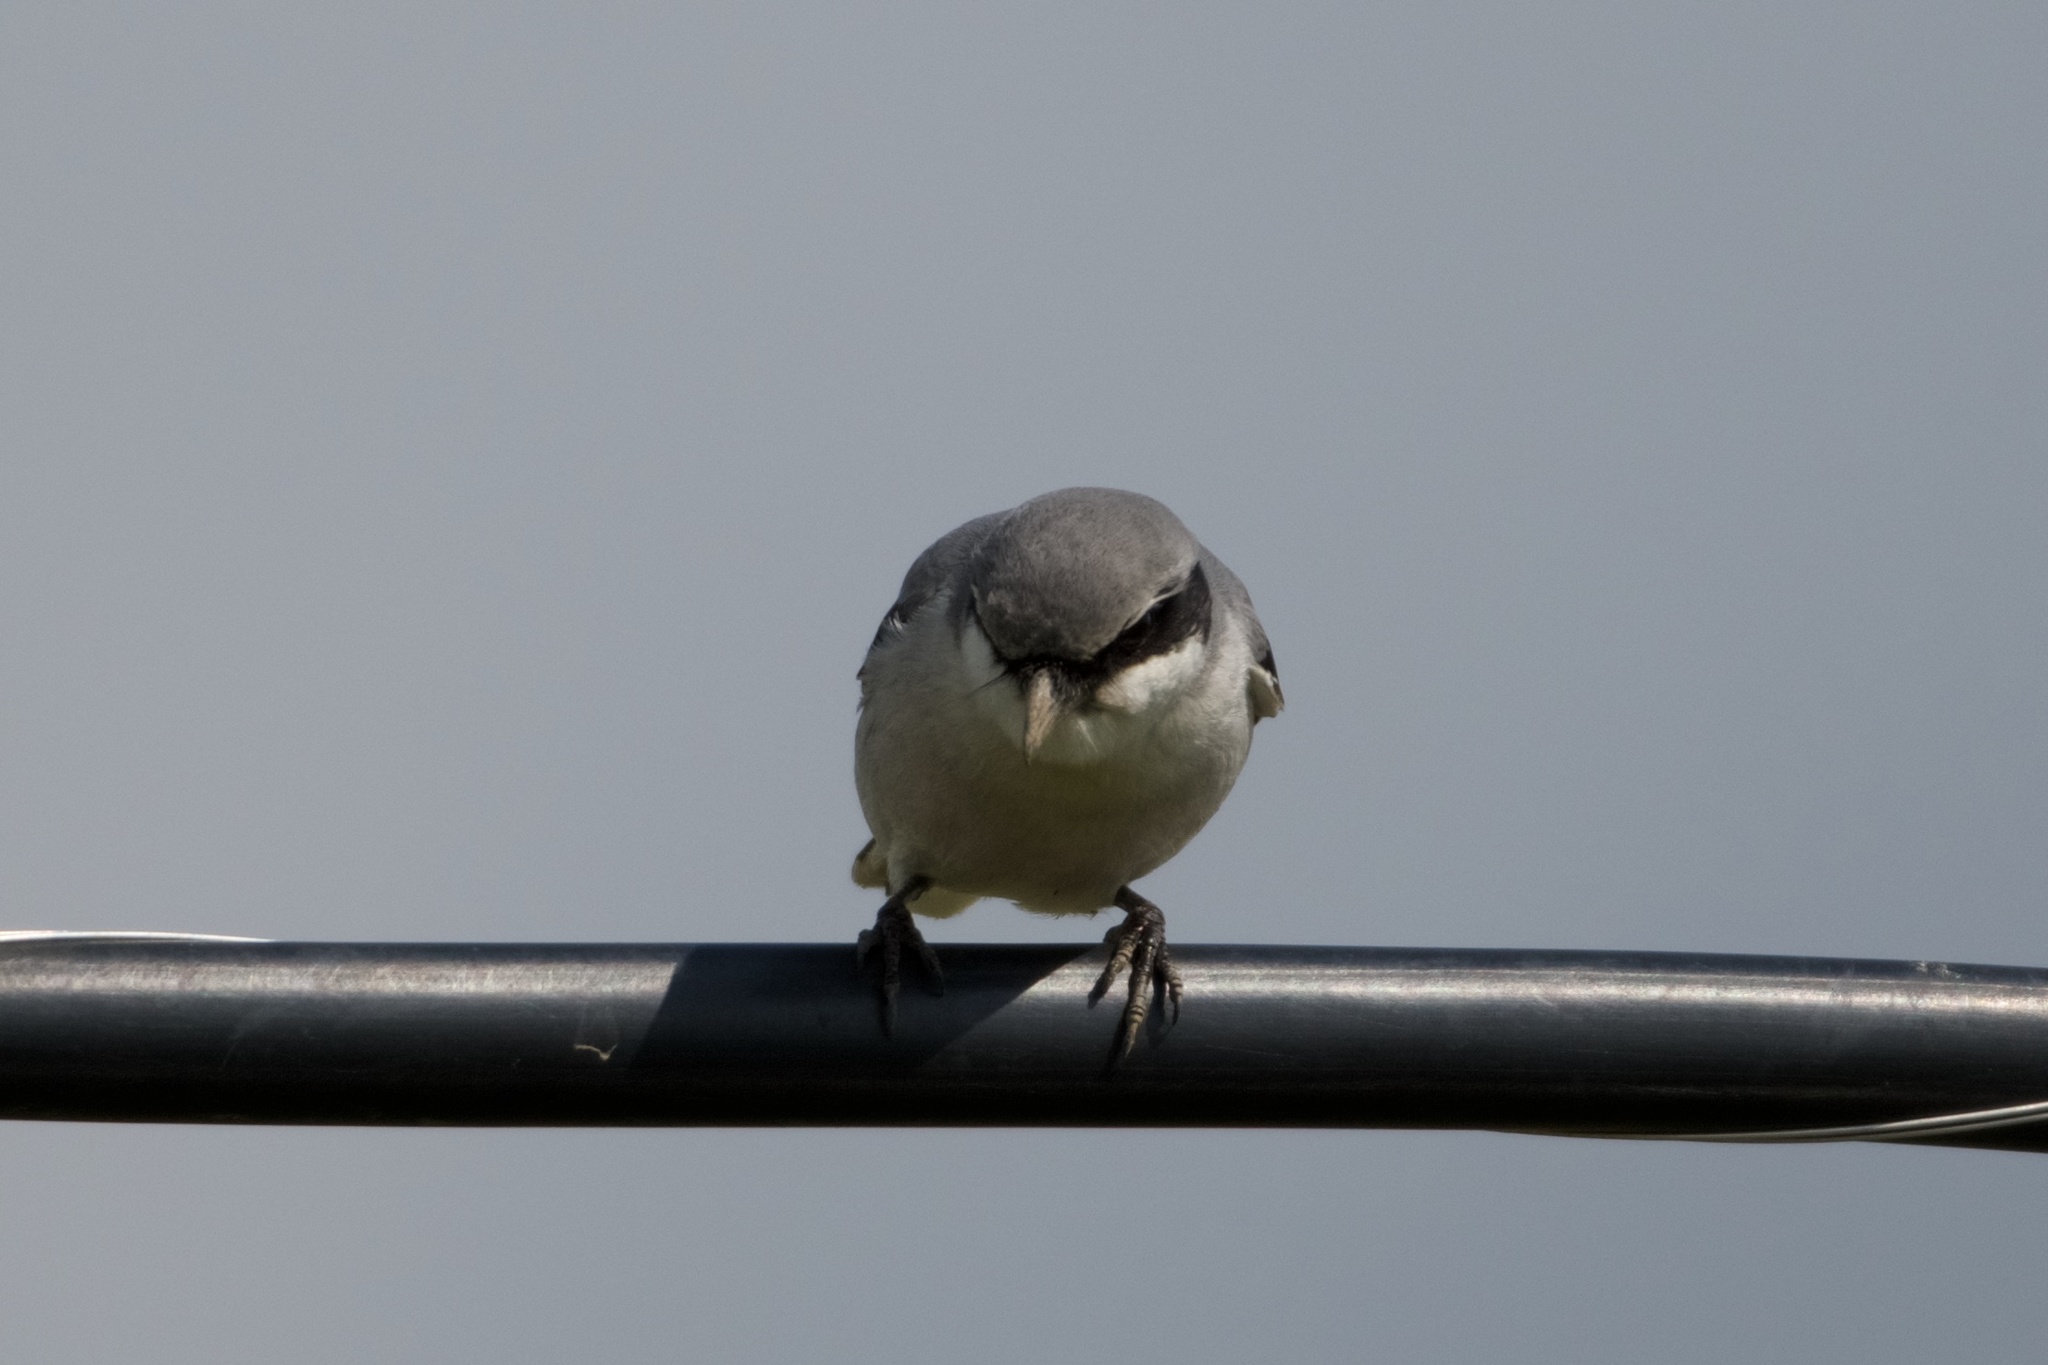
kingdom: Animalia
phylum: Chordata
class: Aves
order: Passeriformes
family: Laniidae
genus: Lanius
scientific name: Lanius ludovicianus
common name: Loggerhead shrike
